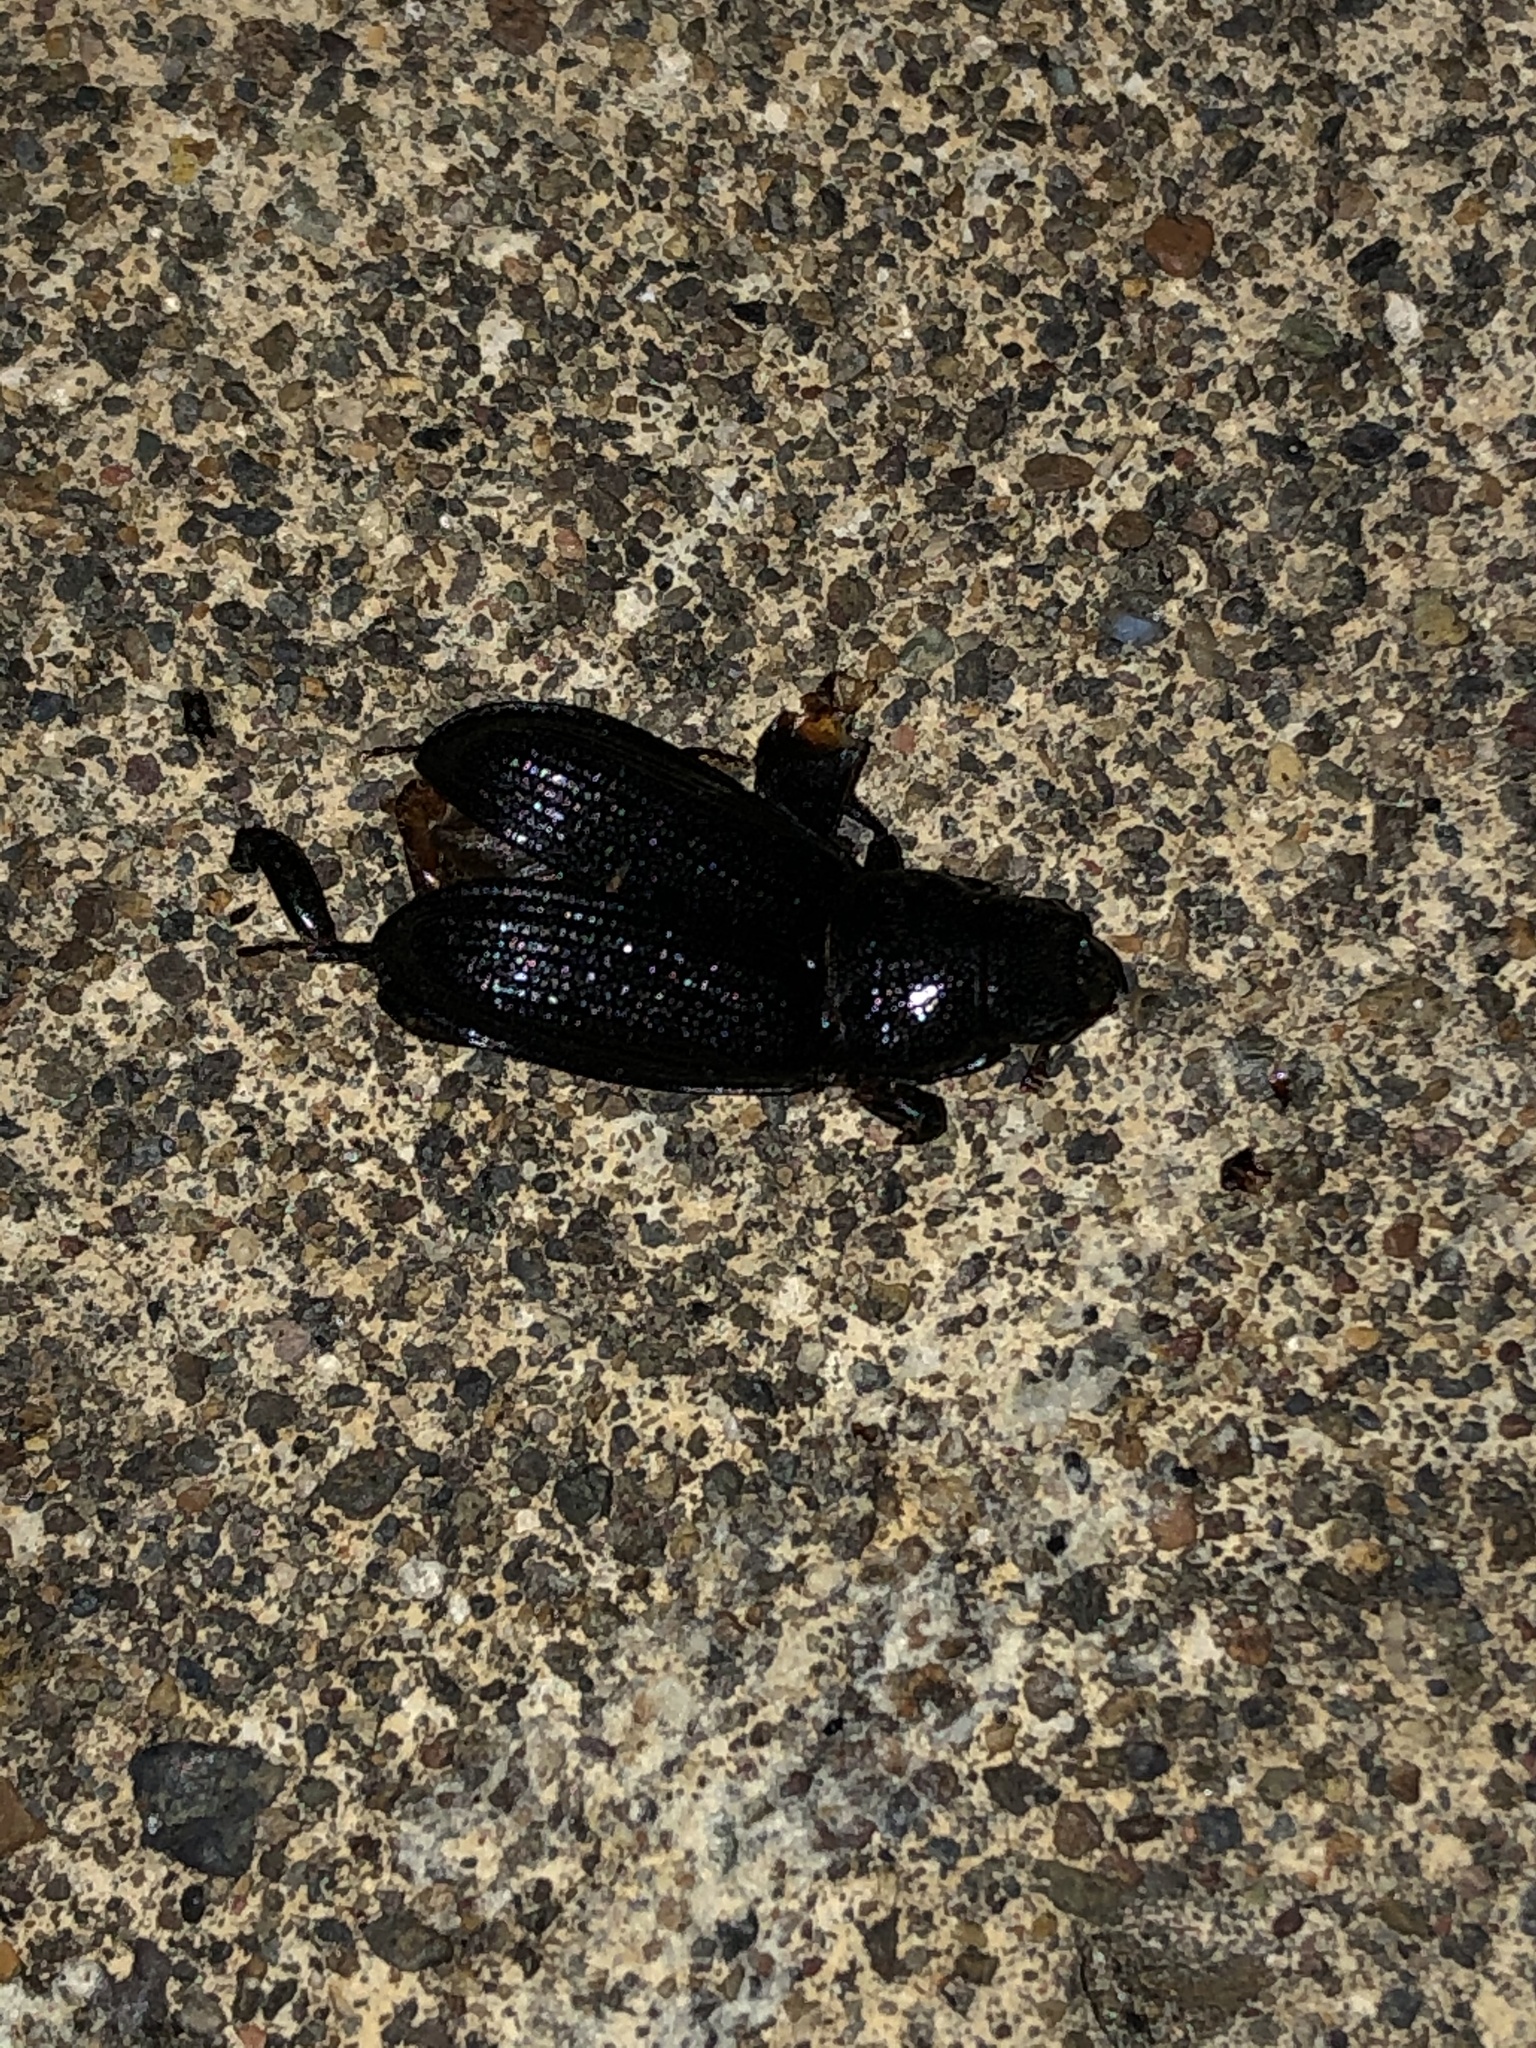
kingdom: Animalia
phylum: Arthropoda
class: Insecta
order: Coleoptera
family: Lucanidae
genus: Ceruchus
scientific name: Ceruchus striatus
